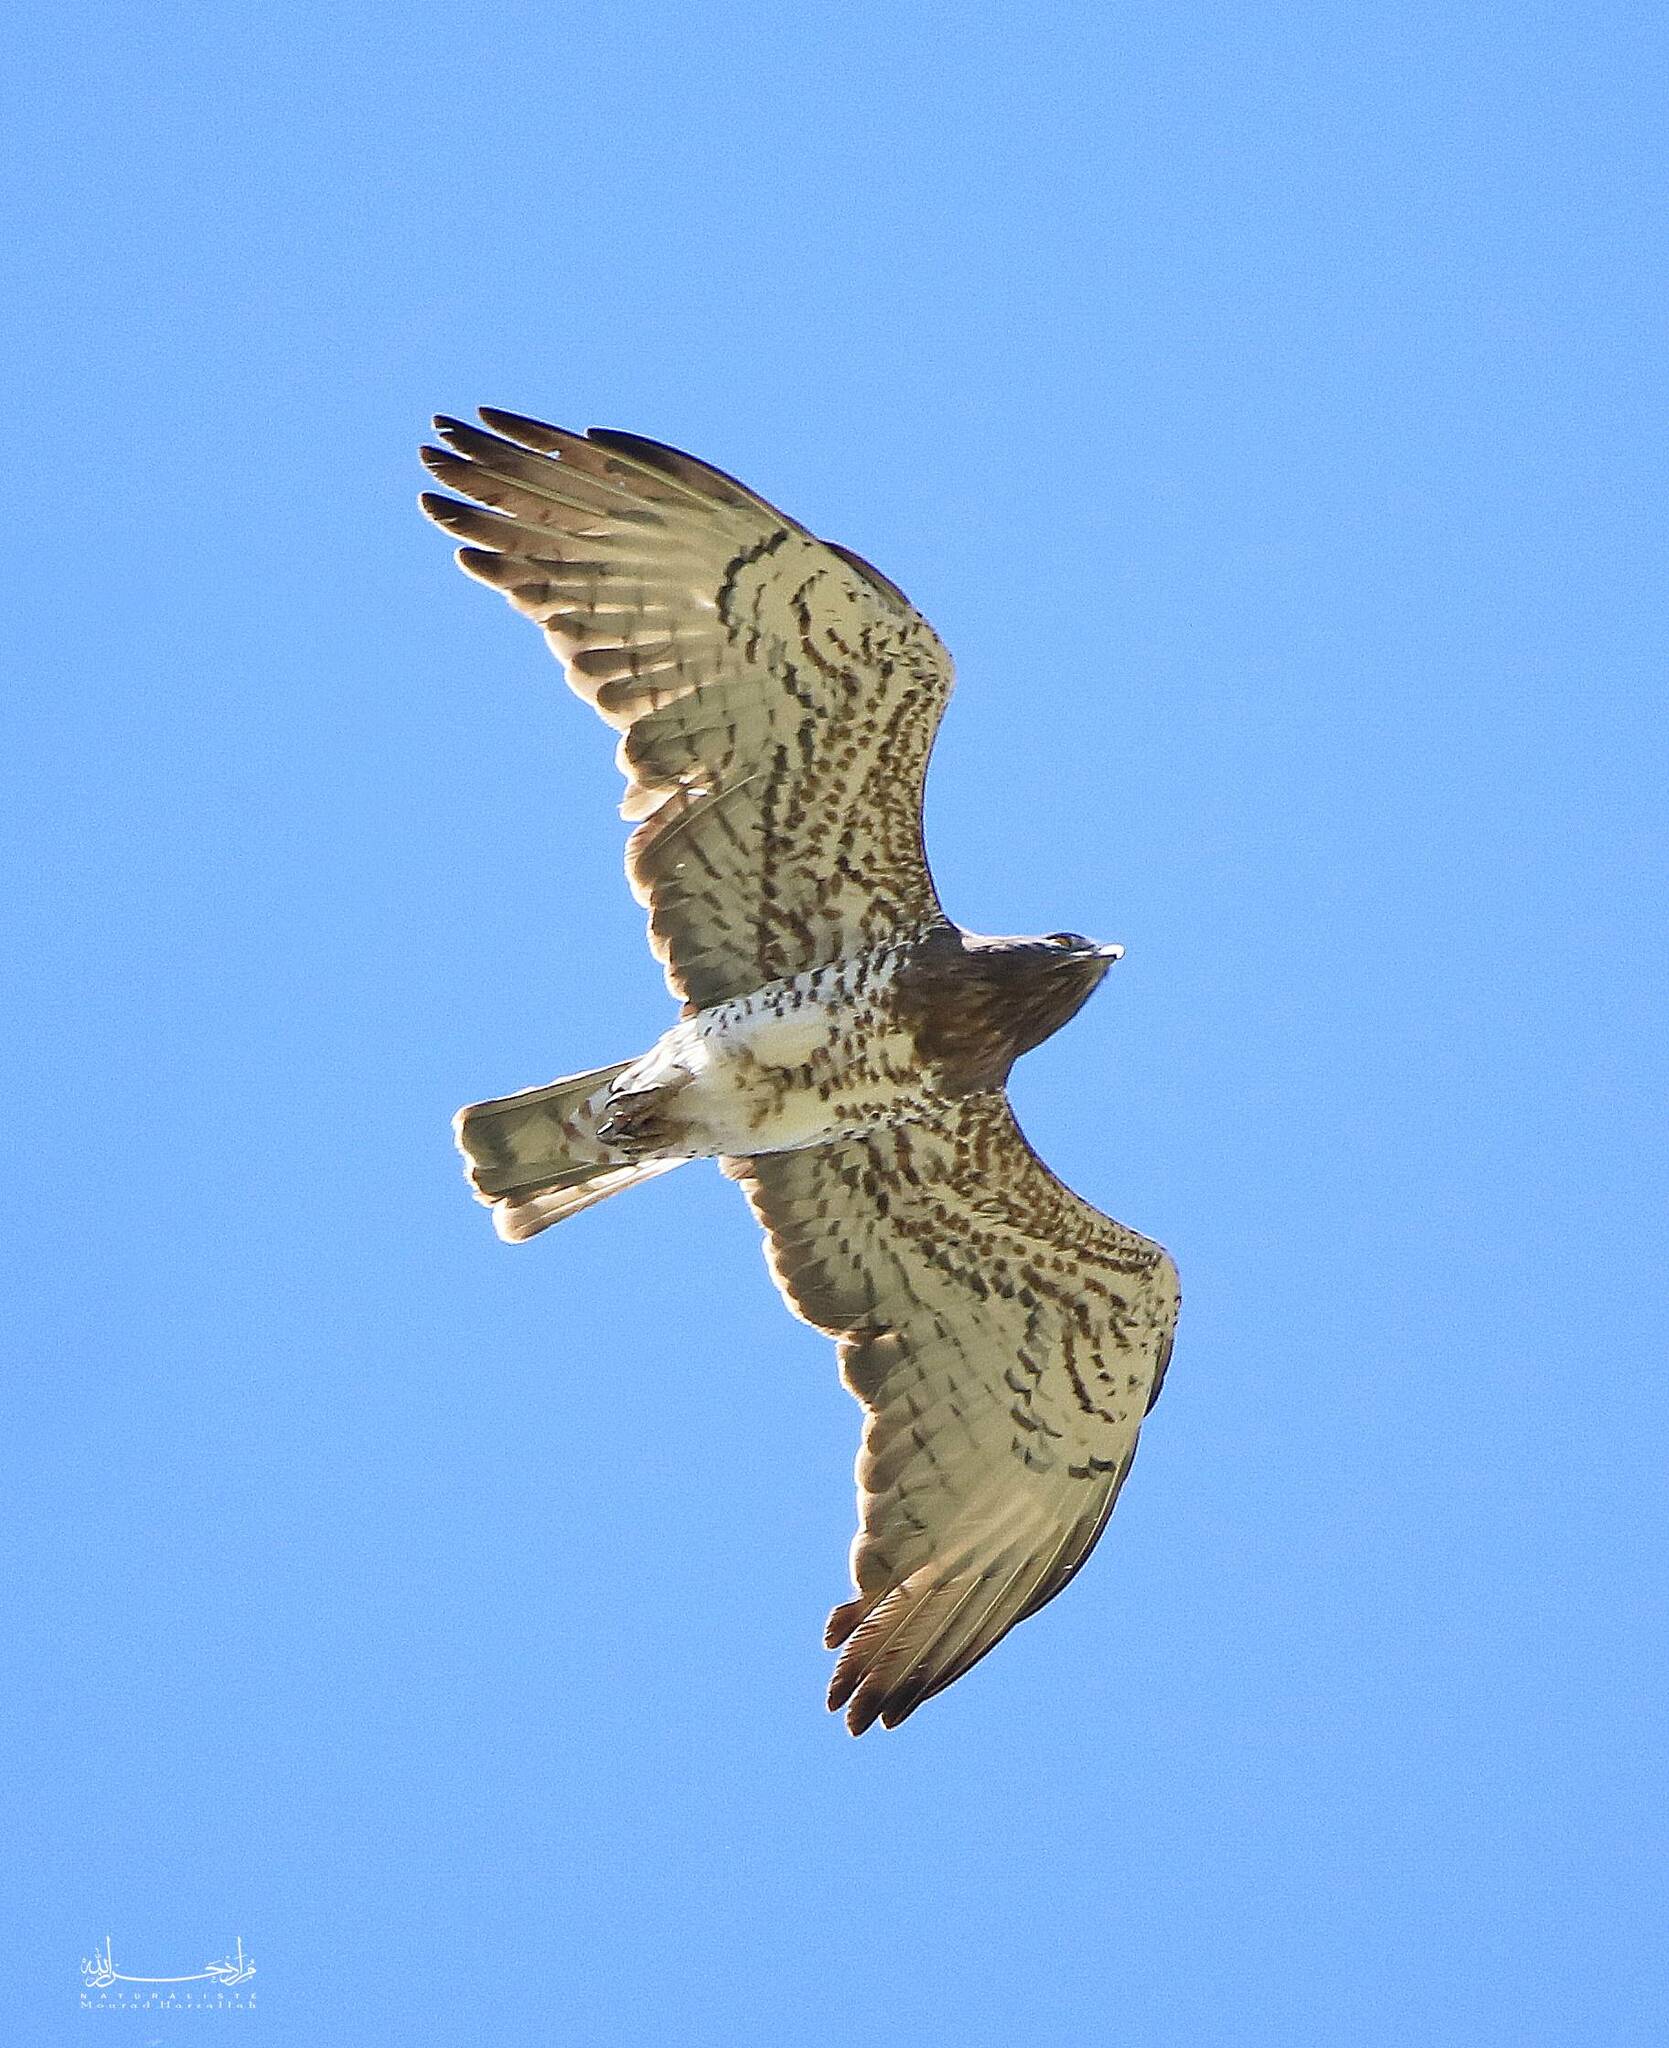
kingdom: Animalia
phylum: Chordata
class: Aves
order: Accipitriformes
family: Accipitridae
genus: Circaetus
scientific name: Circaetus gallicus
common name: Short-toed snake eagle
